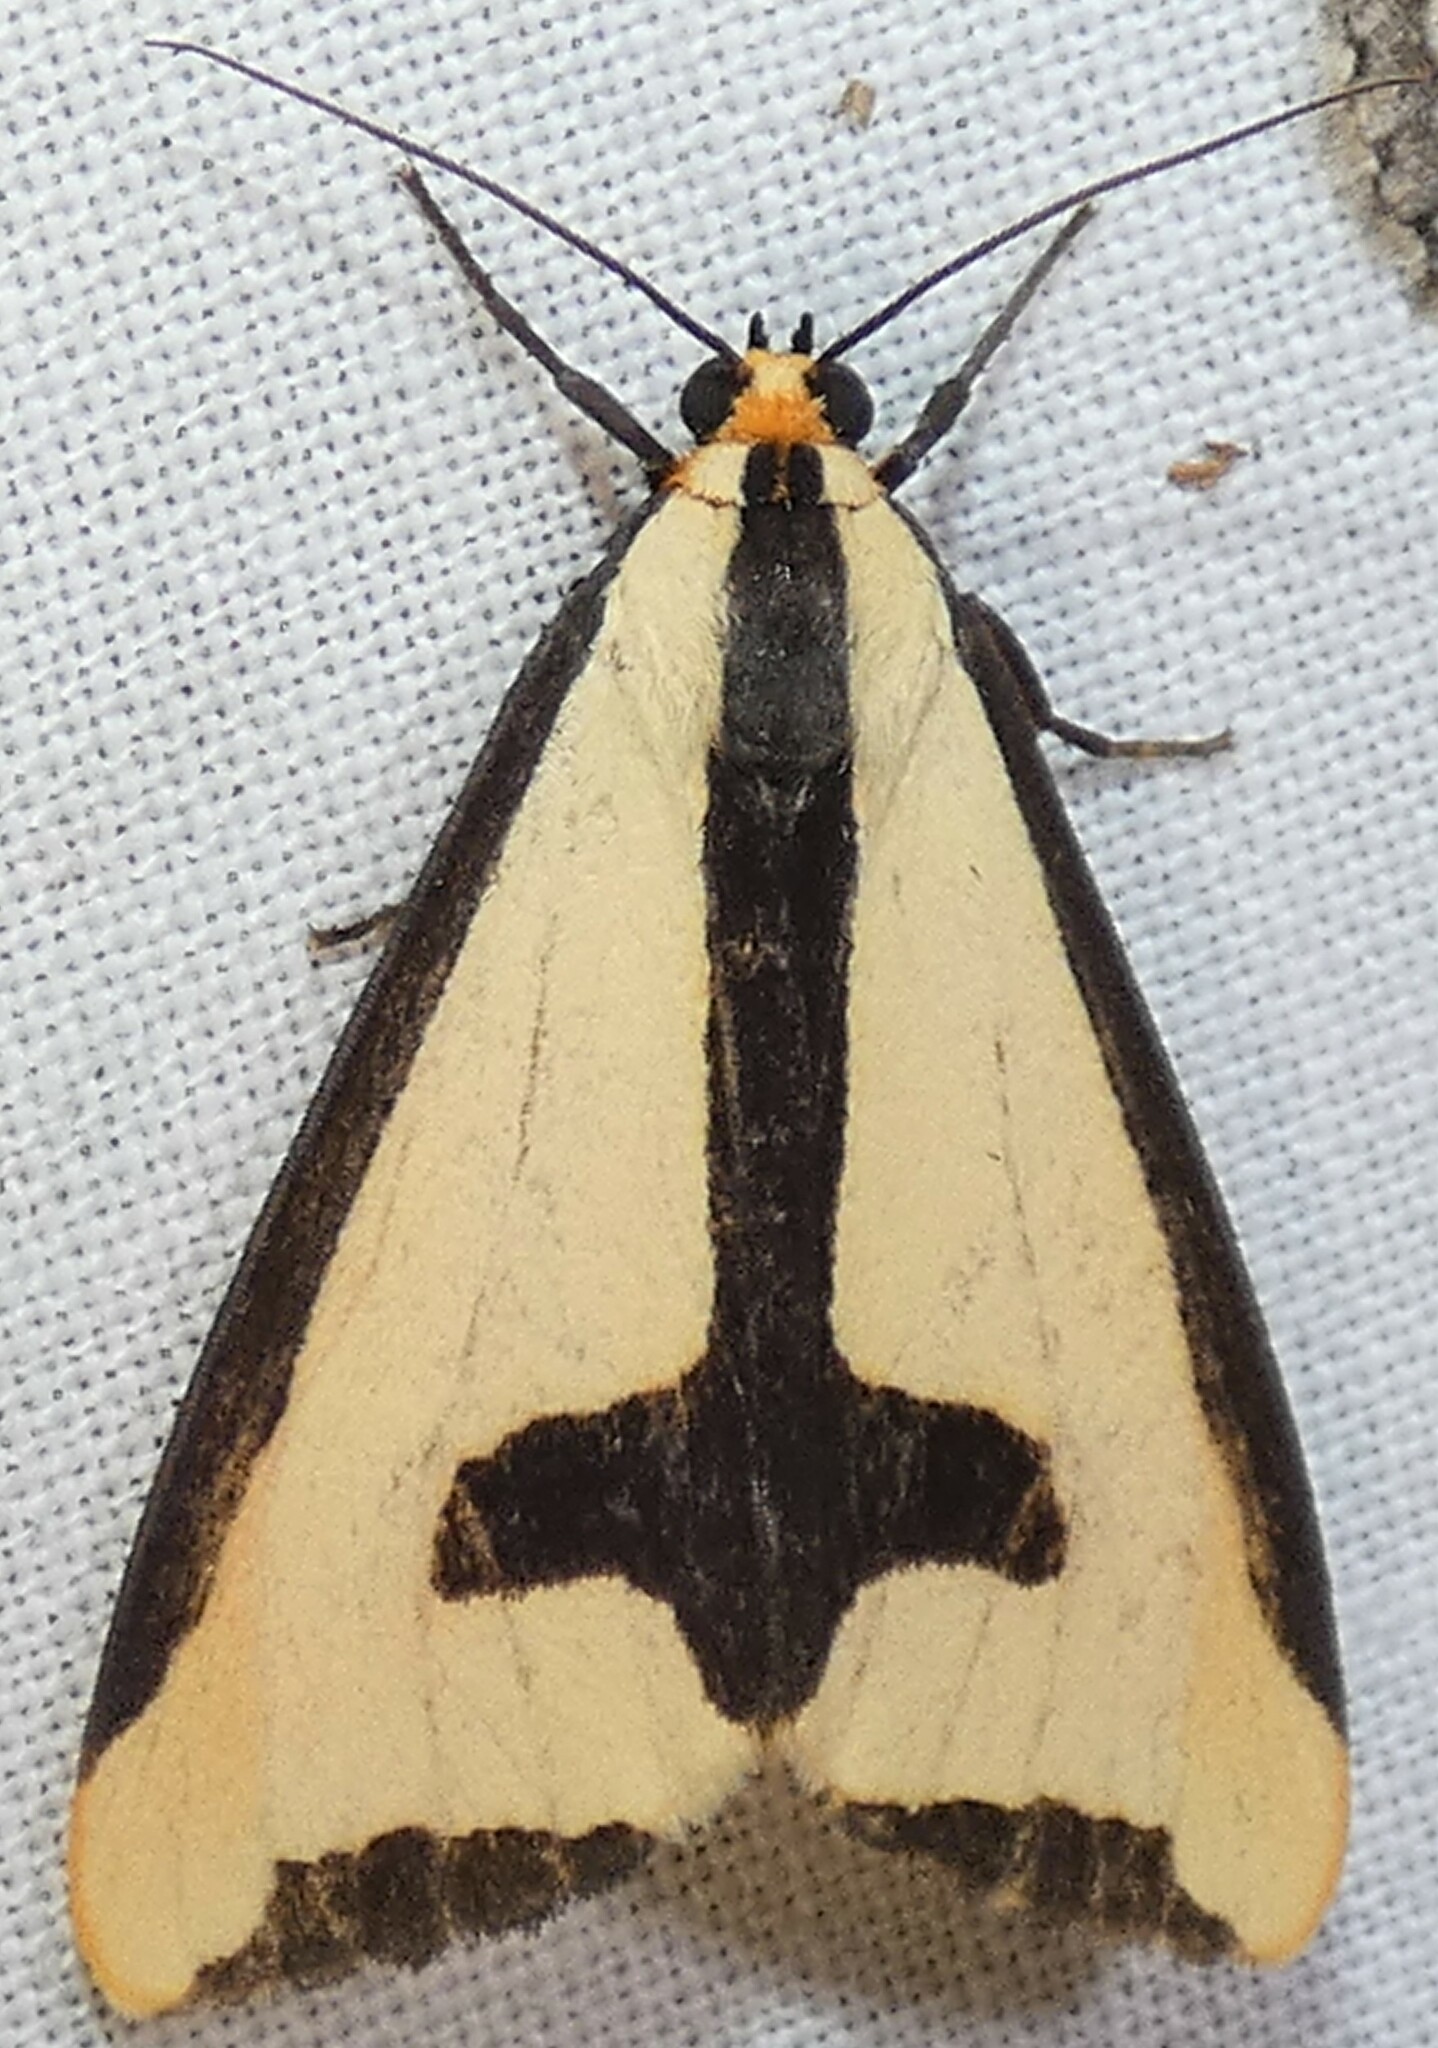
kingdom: Animalia
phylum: Arthropoda
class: Insecta
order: Lepidoptera
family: Erebidae
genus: Haploa
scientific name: Haploa clymene
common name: Clymene moth
